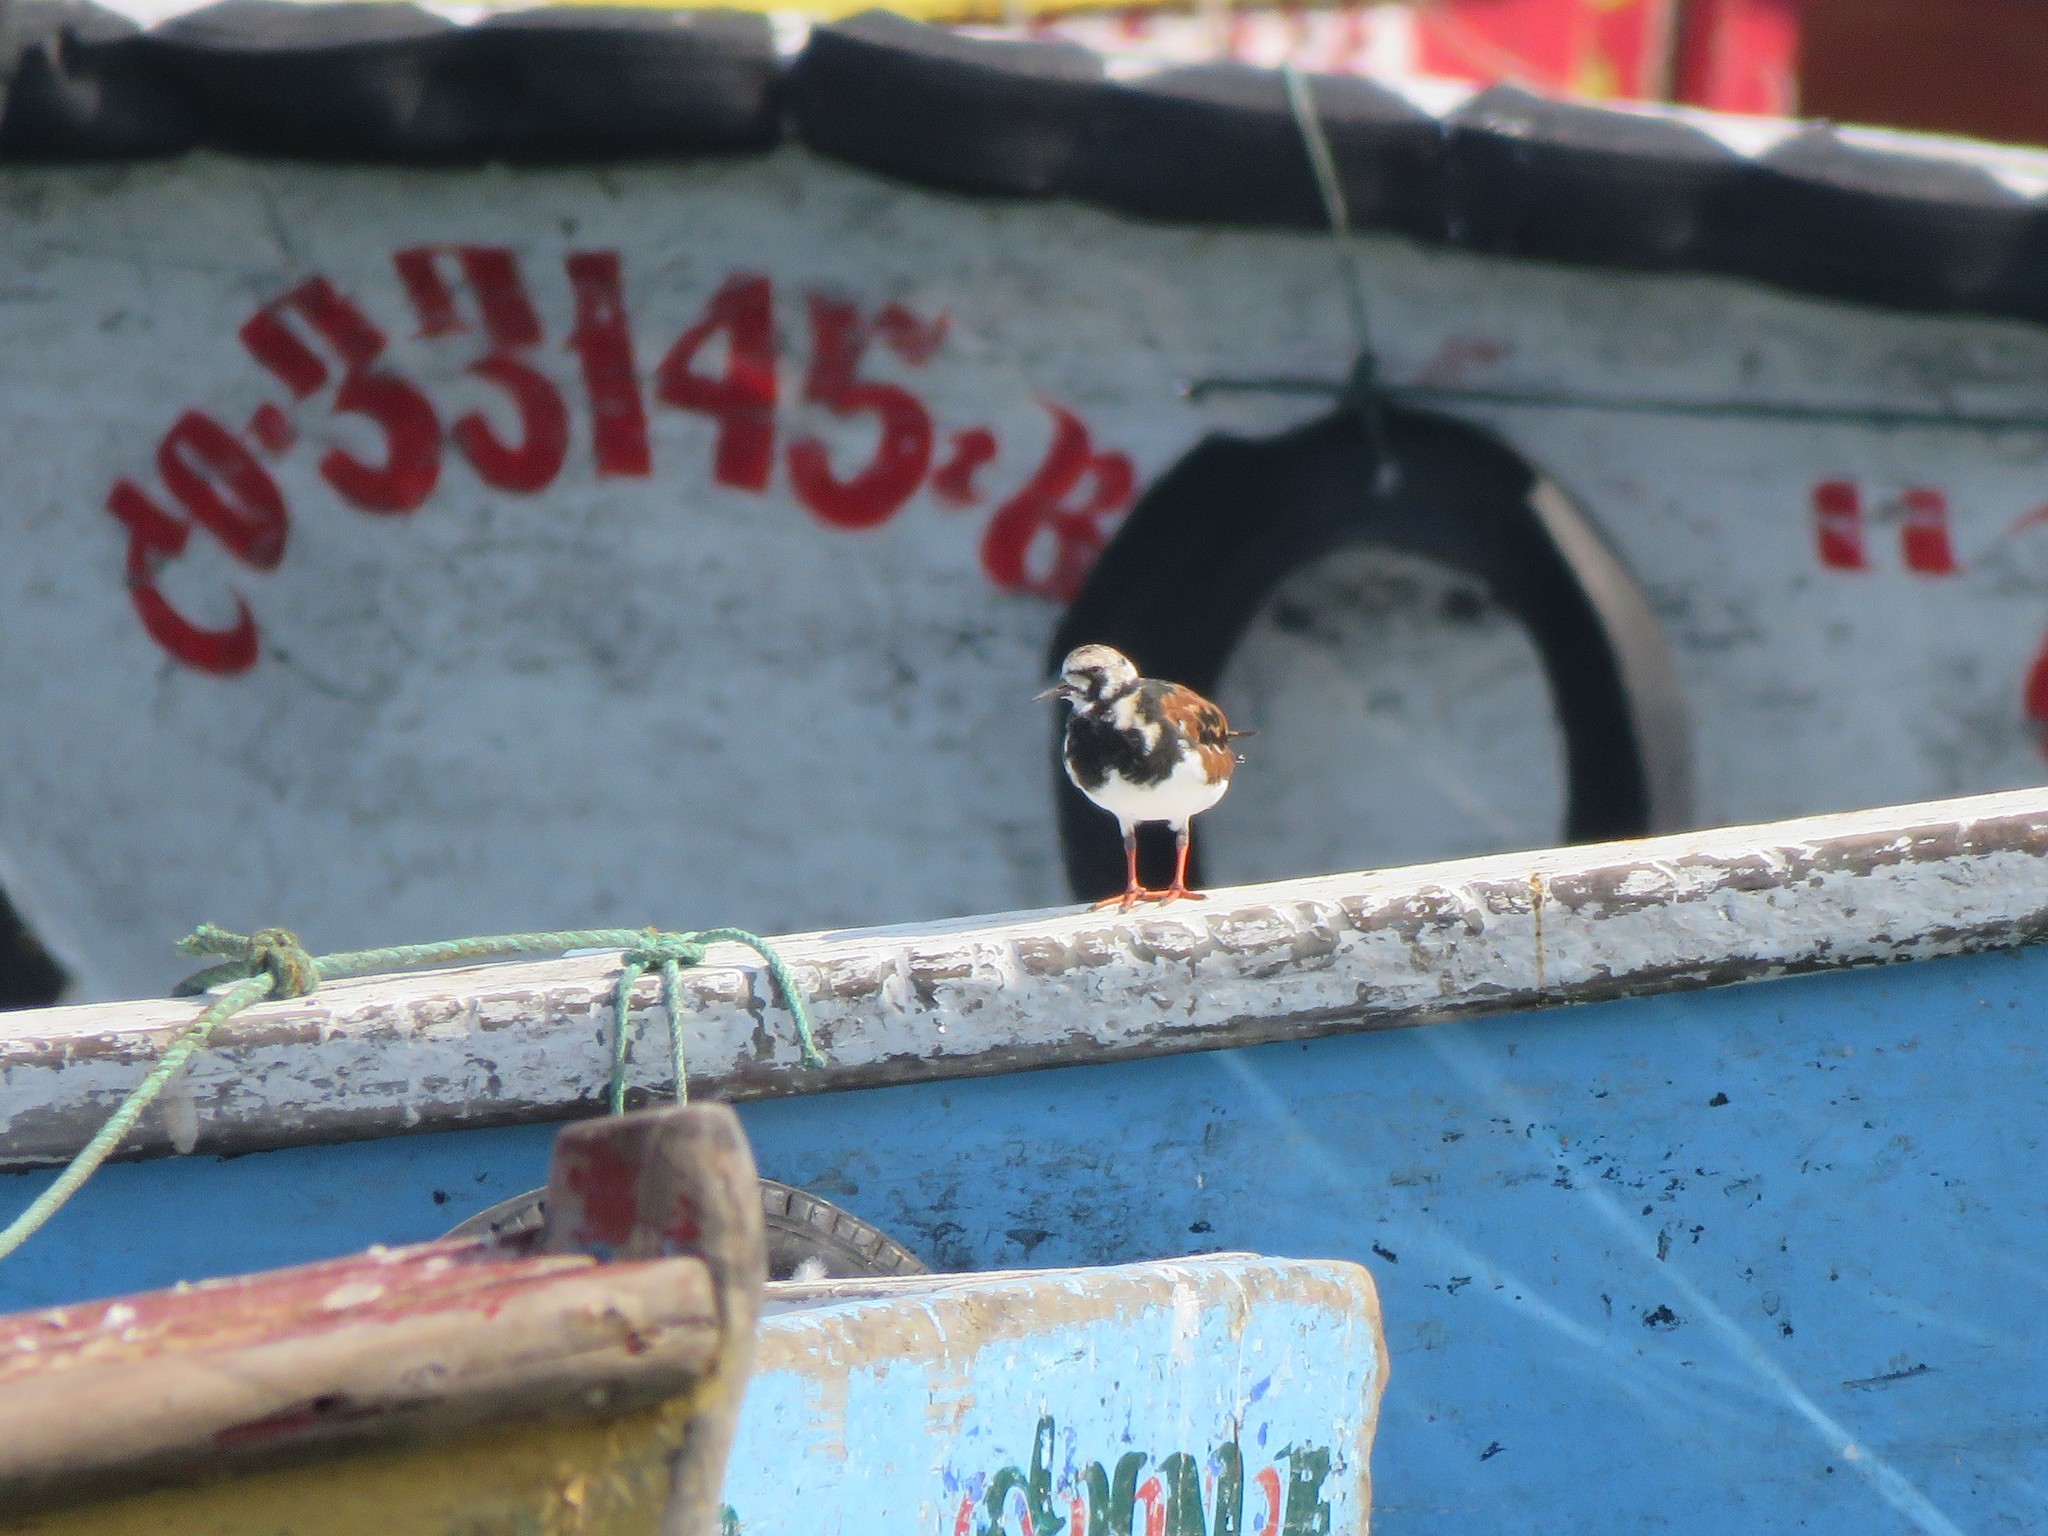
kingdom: Animalia
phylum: Chordata
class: Aves
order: Charadriiformes
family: Scolopacidae
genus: Arenaria
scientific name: Arenaria interpres
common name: Ruddy turnstone
